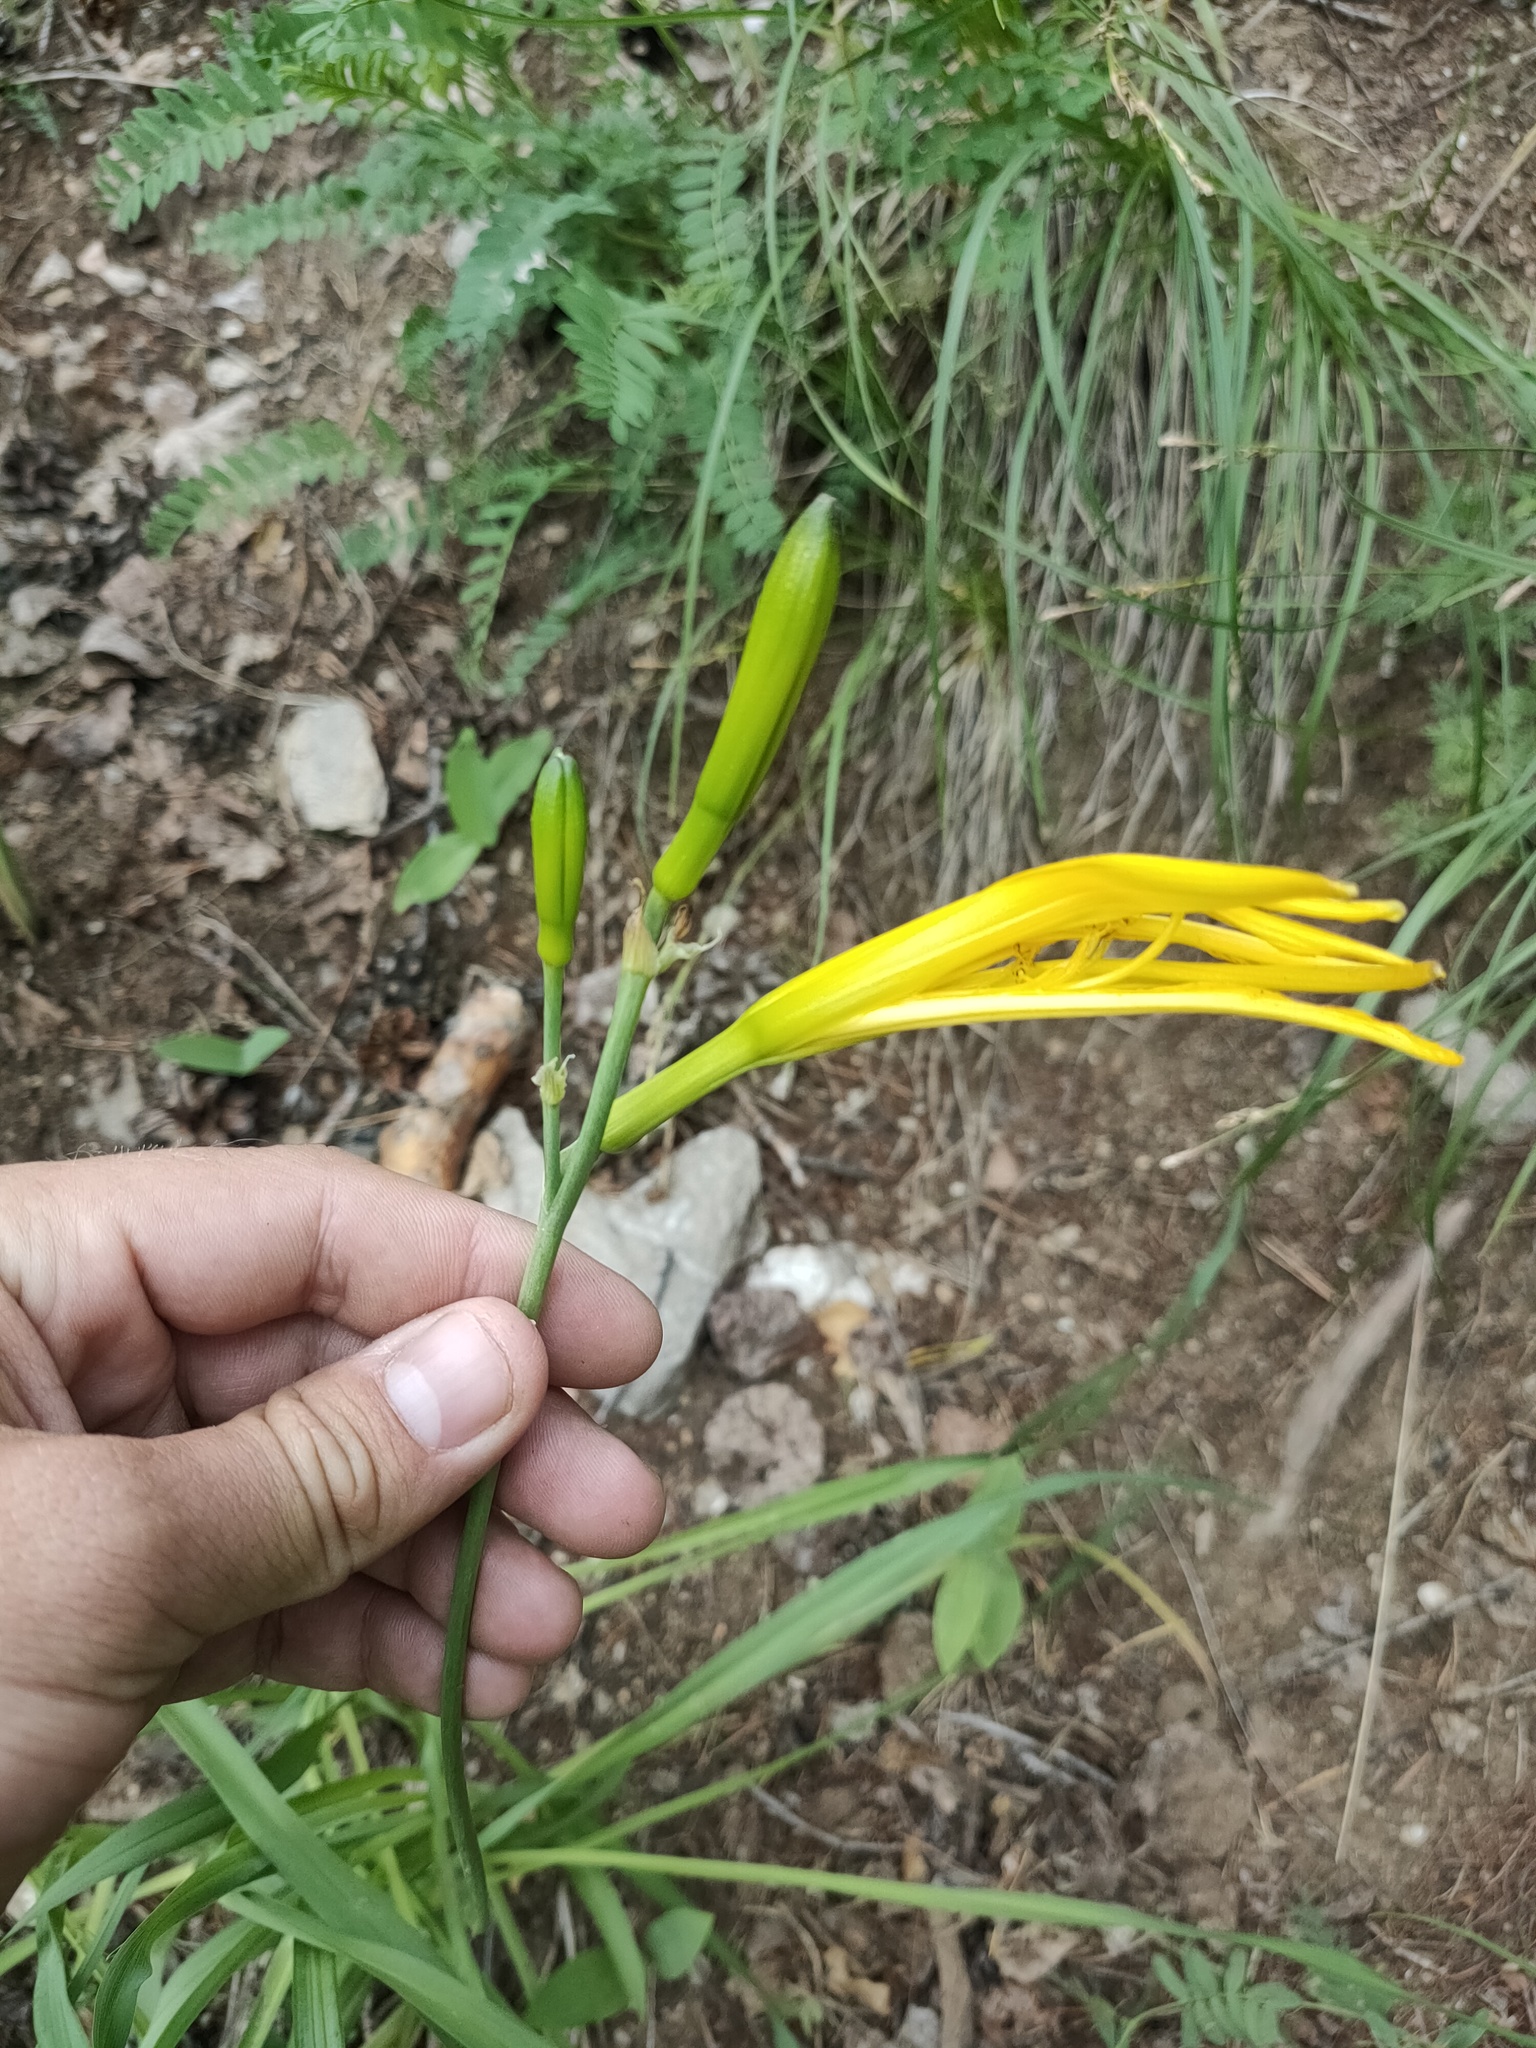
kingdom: Plantae
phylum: Tracheophyta
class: Liliopsida
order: Asparagales
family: Asphodelaceae
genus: Hemerocallis
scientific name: Hemerocallis minor
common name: Small daylily
